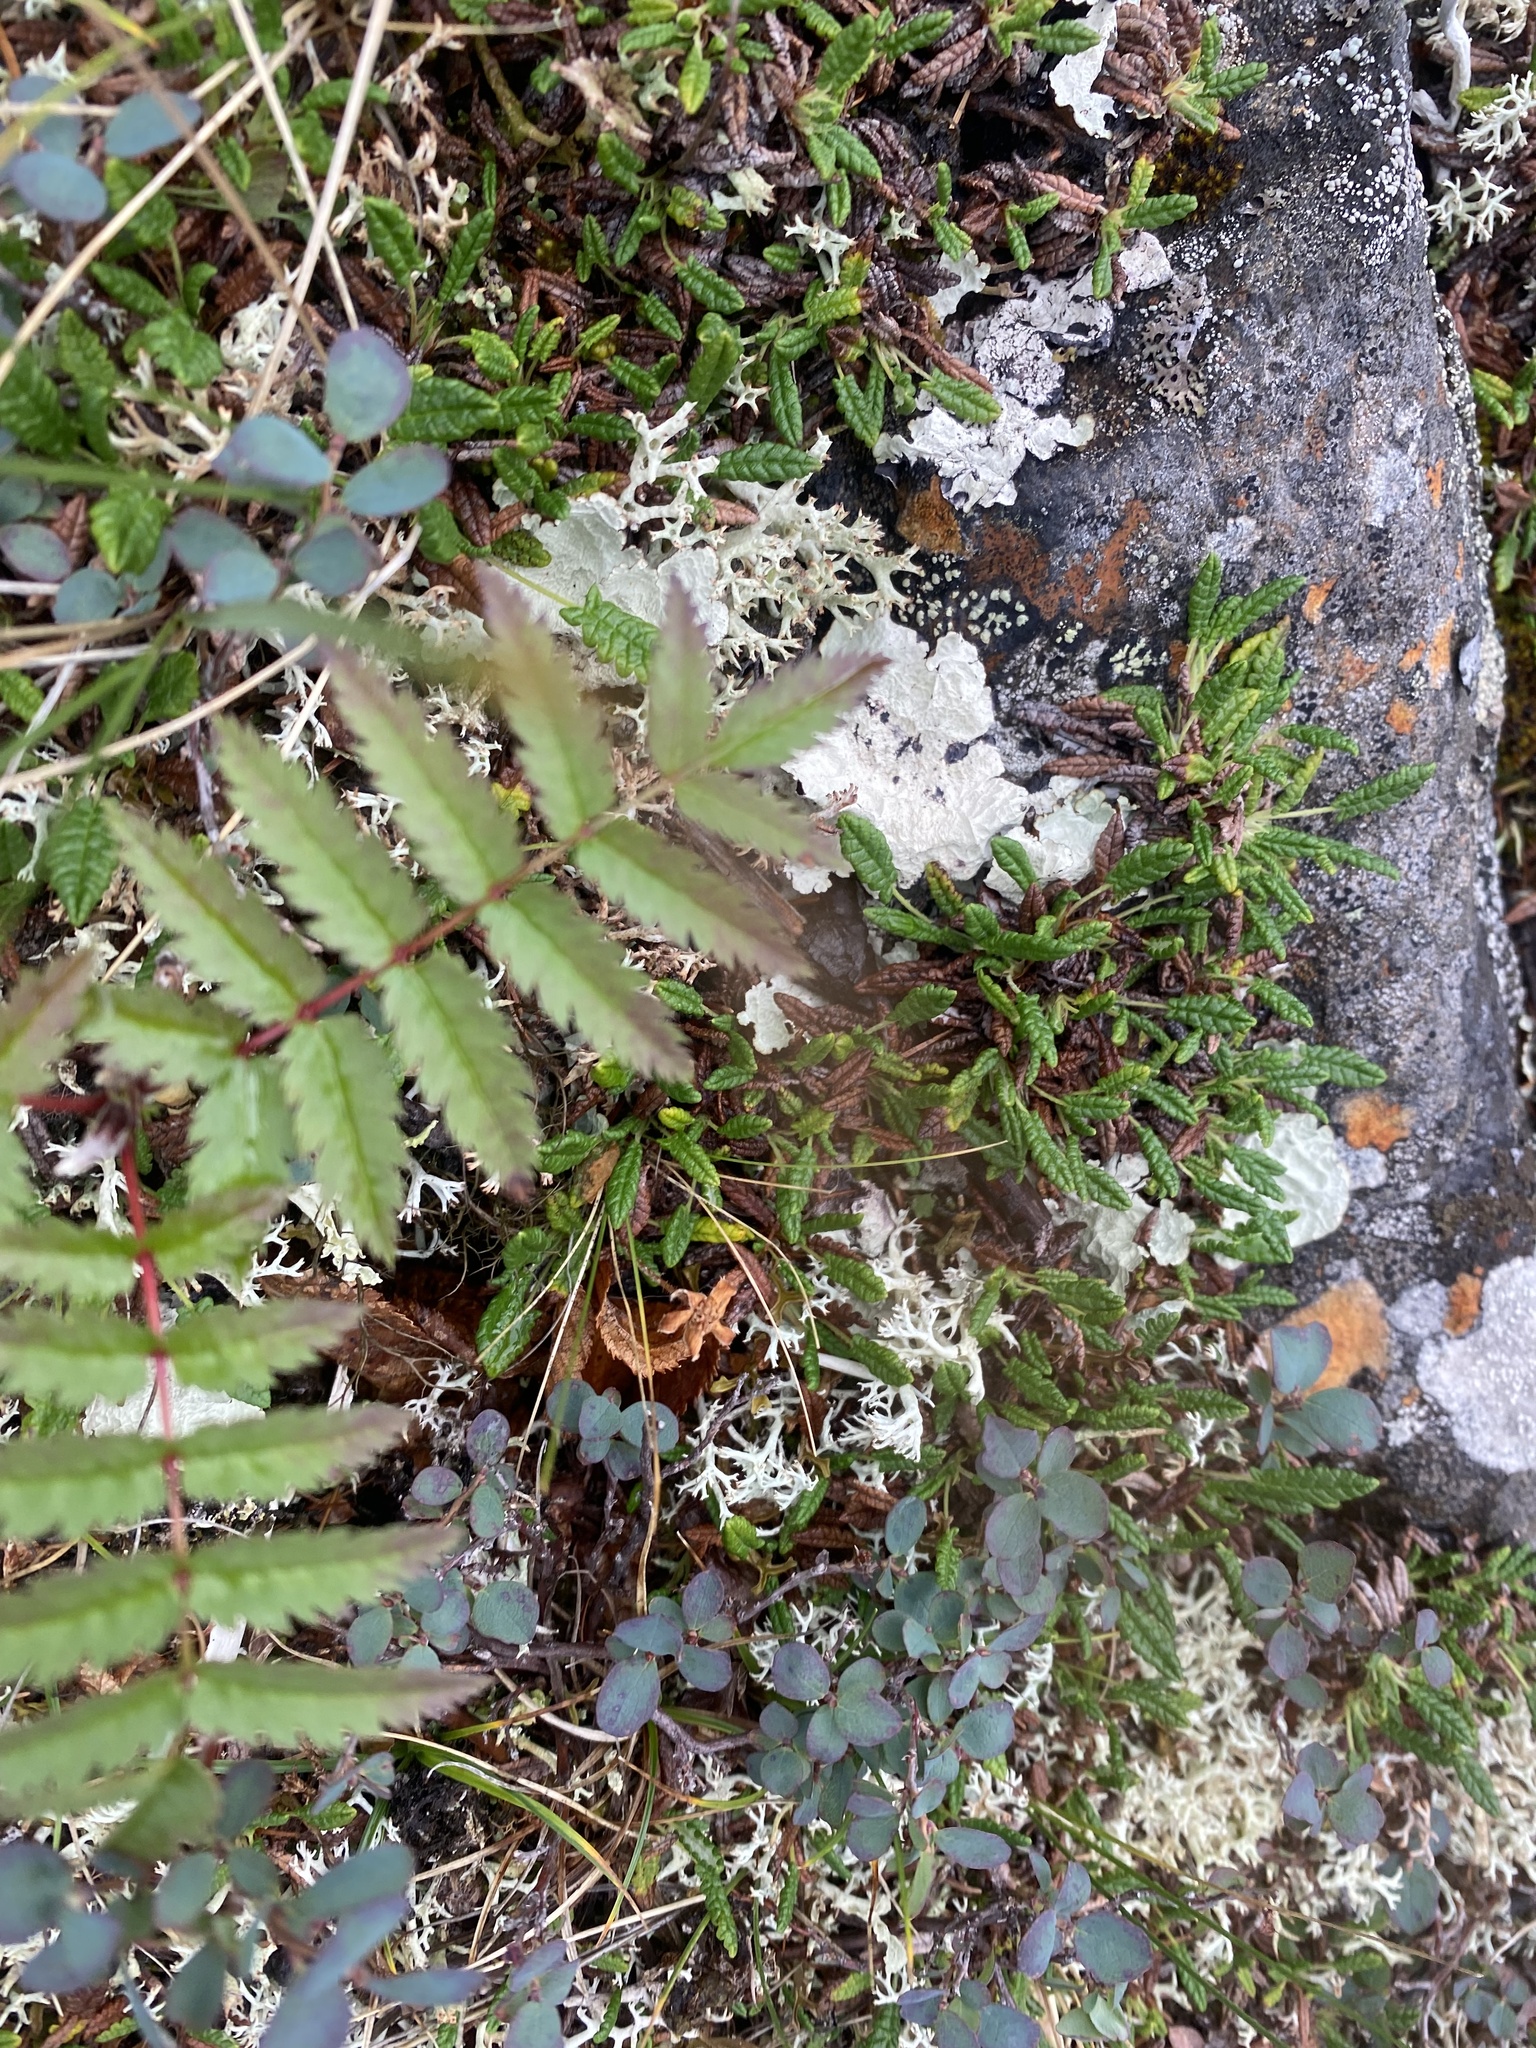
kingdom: Plantae
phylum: Tracheophyta
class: Magnoliopsida
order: Rosales
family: Rosaceae
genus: Sorbus
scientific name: Sorbus aucuparia
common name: Rowan
